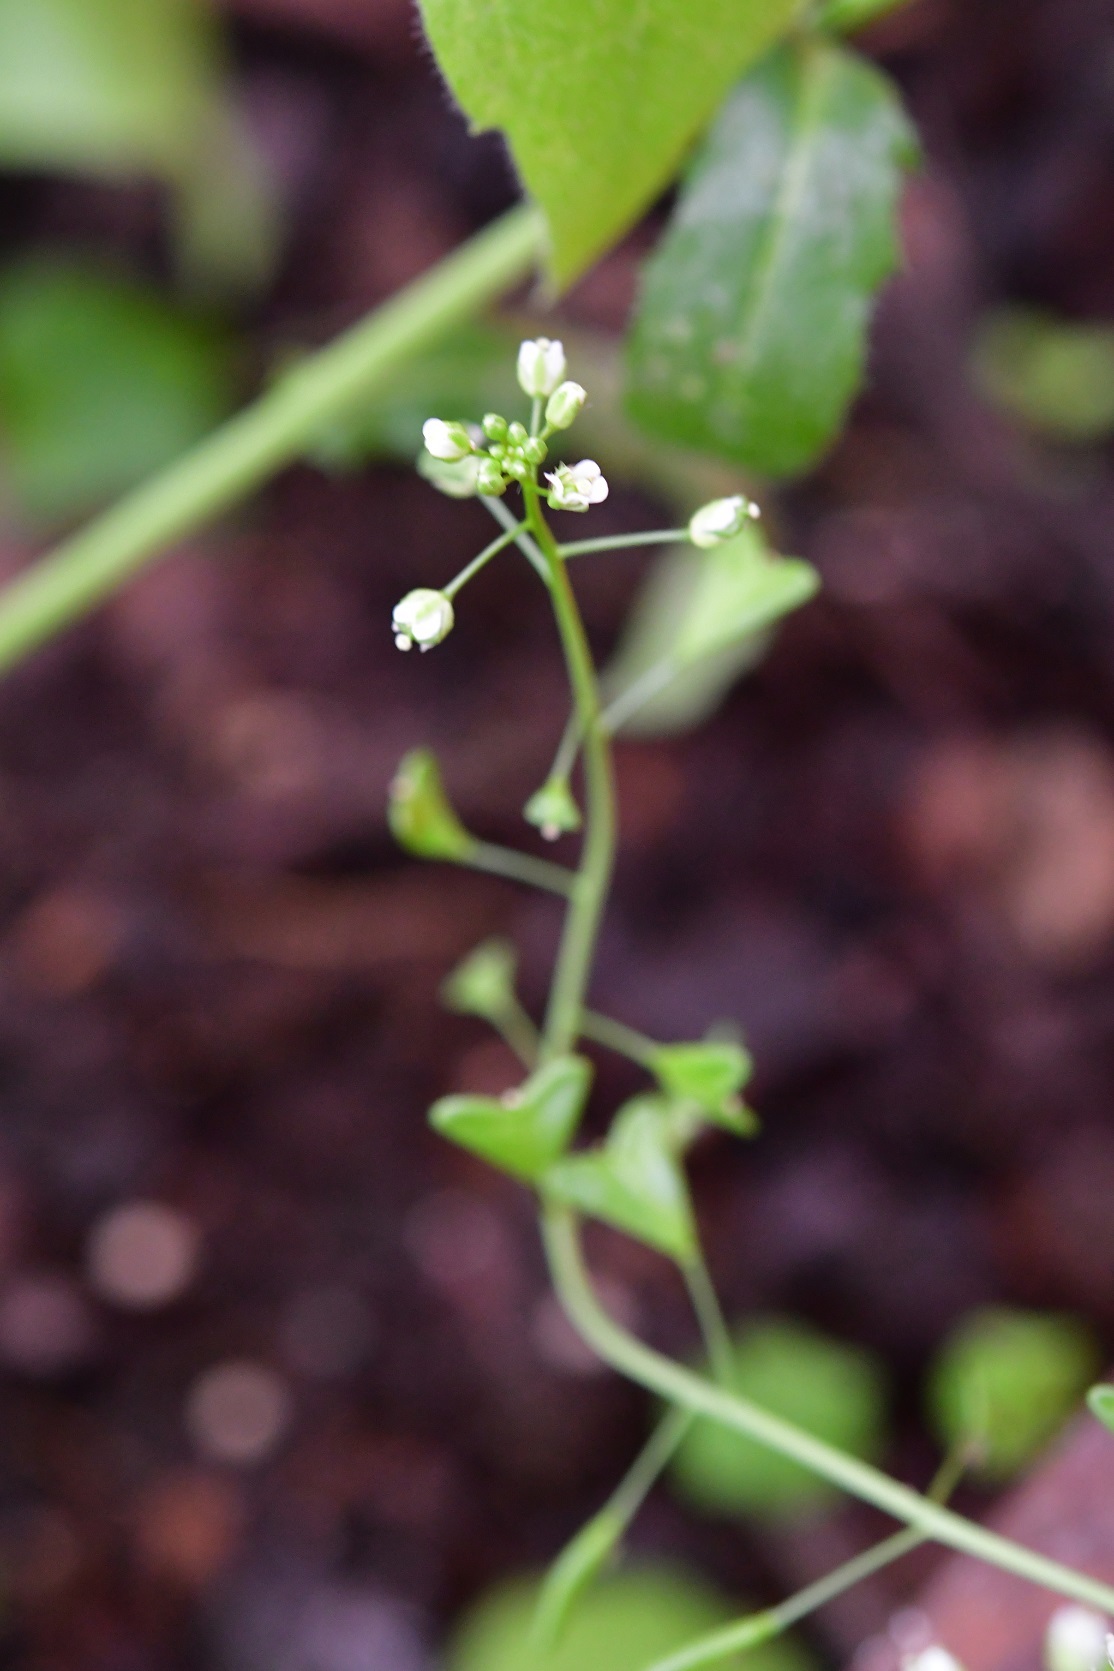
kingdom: Plantae
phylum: Tracheophyta
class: Magnoliopsida
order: Brassicales
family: Brassicaceae
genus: Capsella
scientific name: Capsella bursa-pastoris
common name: Shepherd's purse
